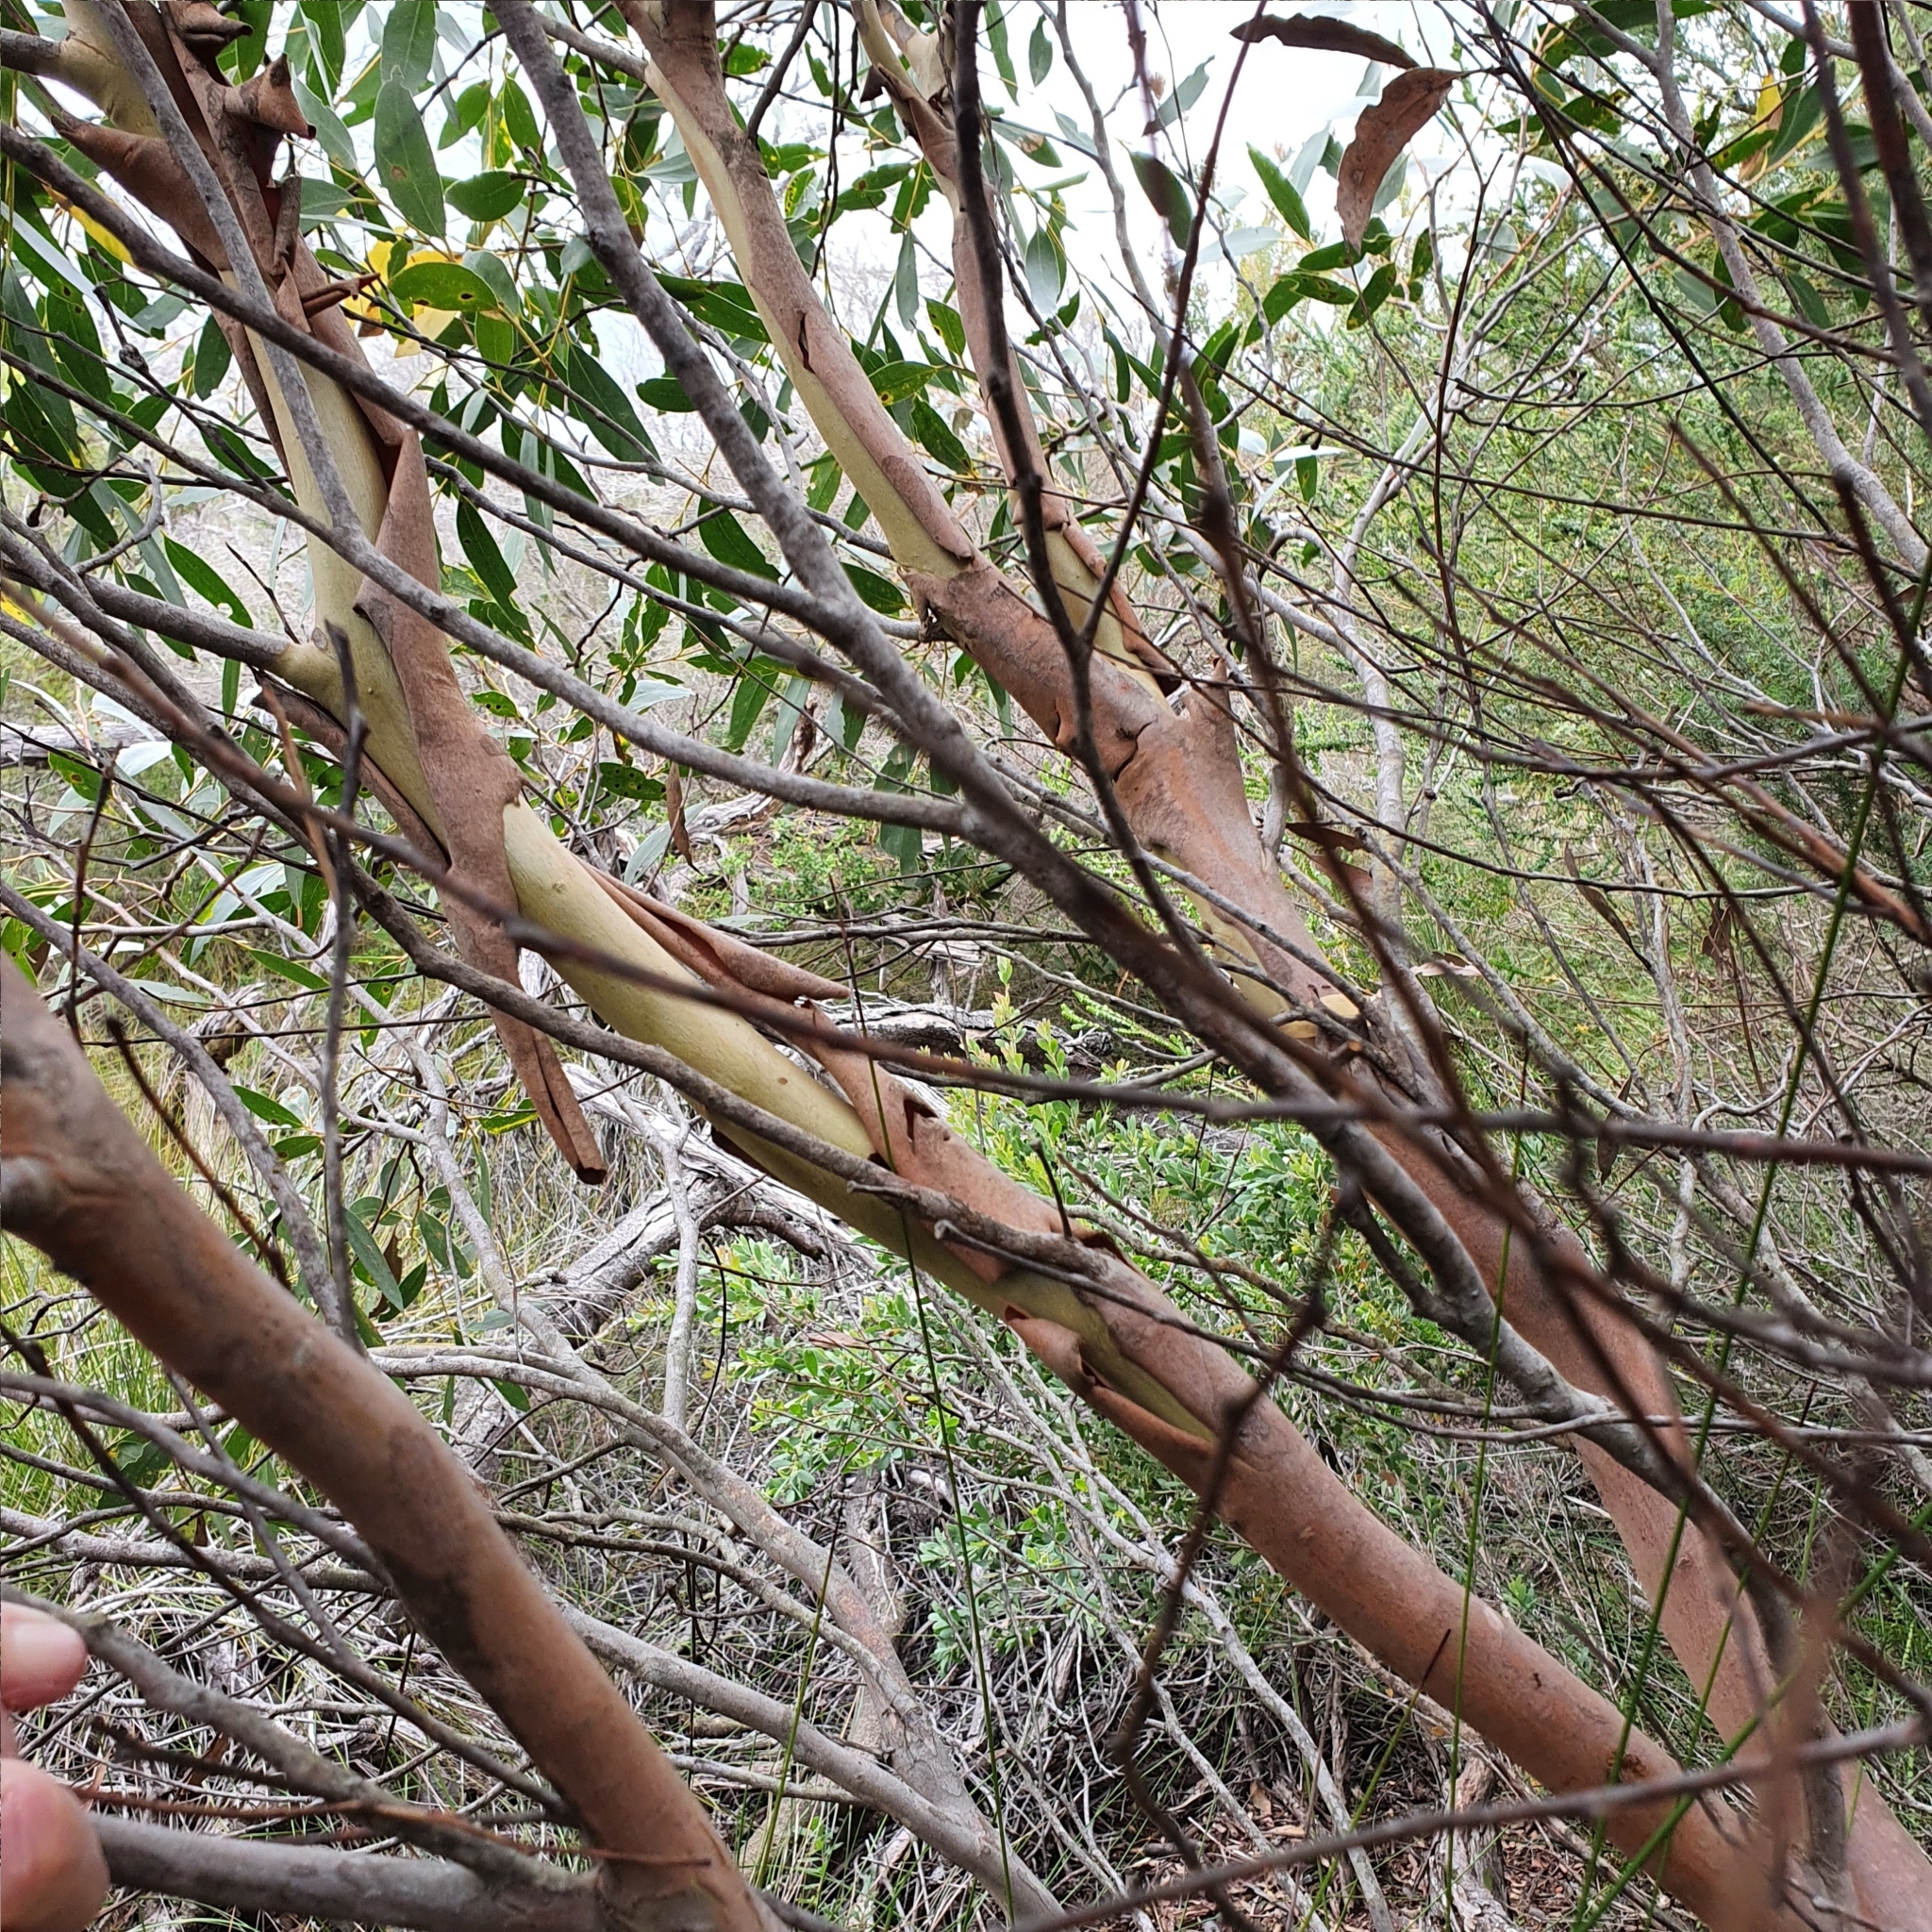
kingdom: Plantae
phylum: Tracheophyta
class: Magnoliopsida
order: Myrtales
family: Myrtaceae
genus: Eucalyptus
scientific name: Eucalyptus burgessiana
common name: Falconbridge mallee-ash
